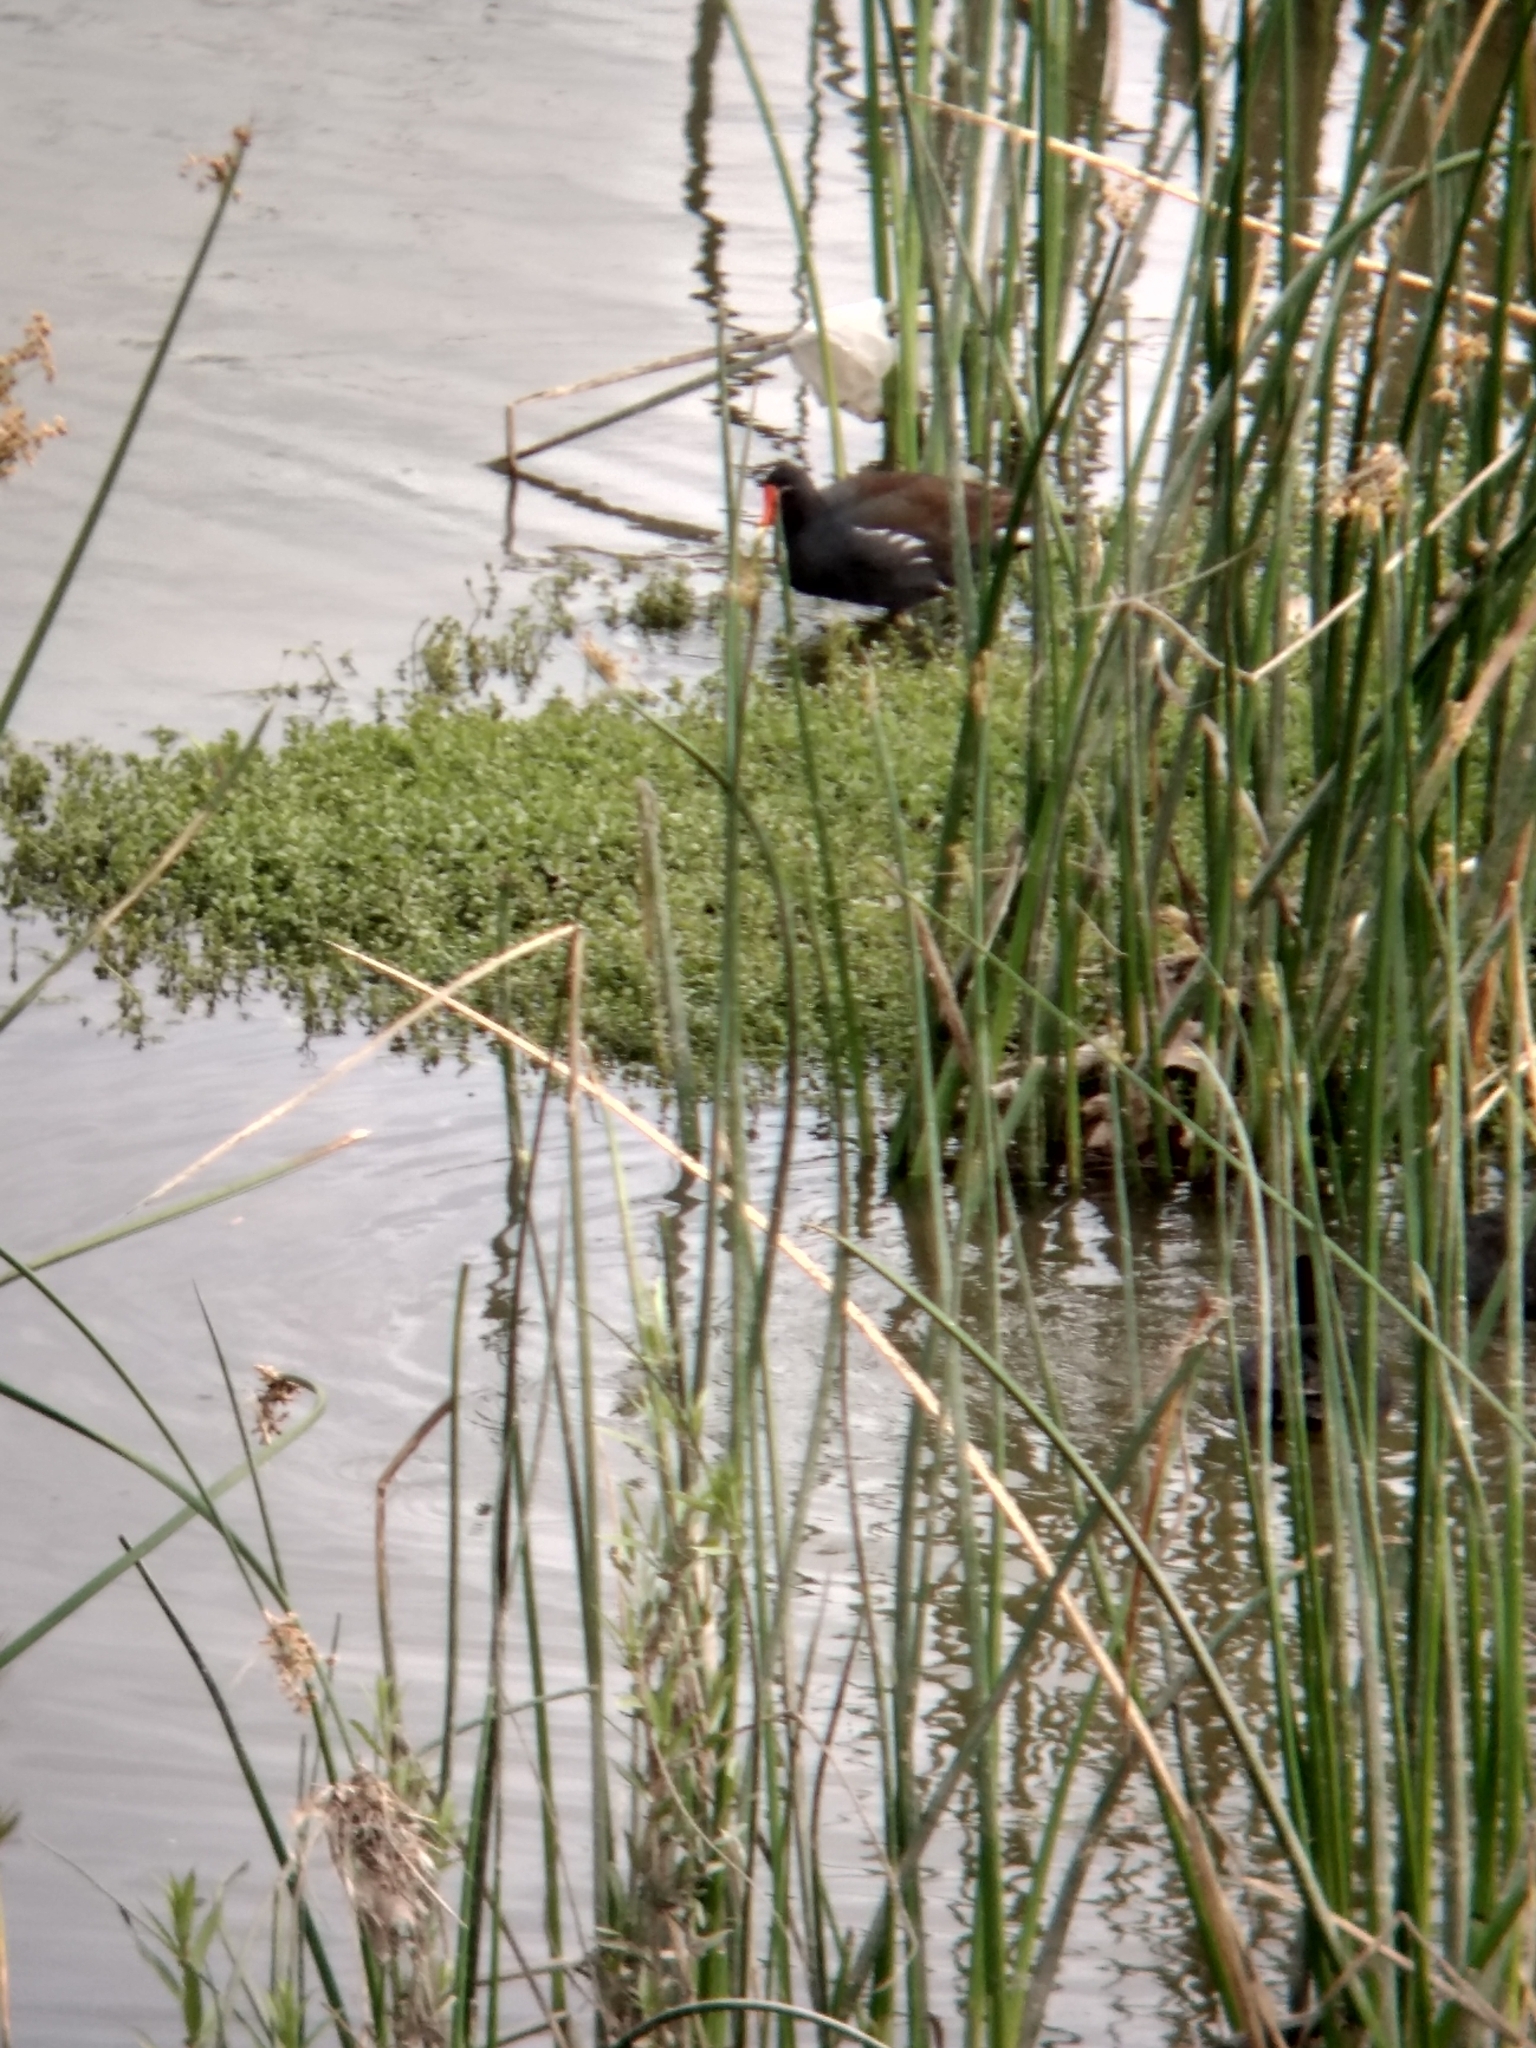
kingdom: Animalia
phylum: Chordata
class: Aves
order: Gruiformes
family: Rallidae
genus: Gallinula
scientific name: Gallinula chloropus
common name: Common moorhen
